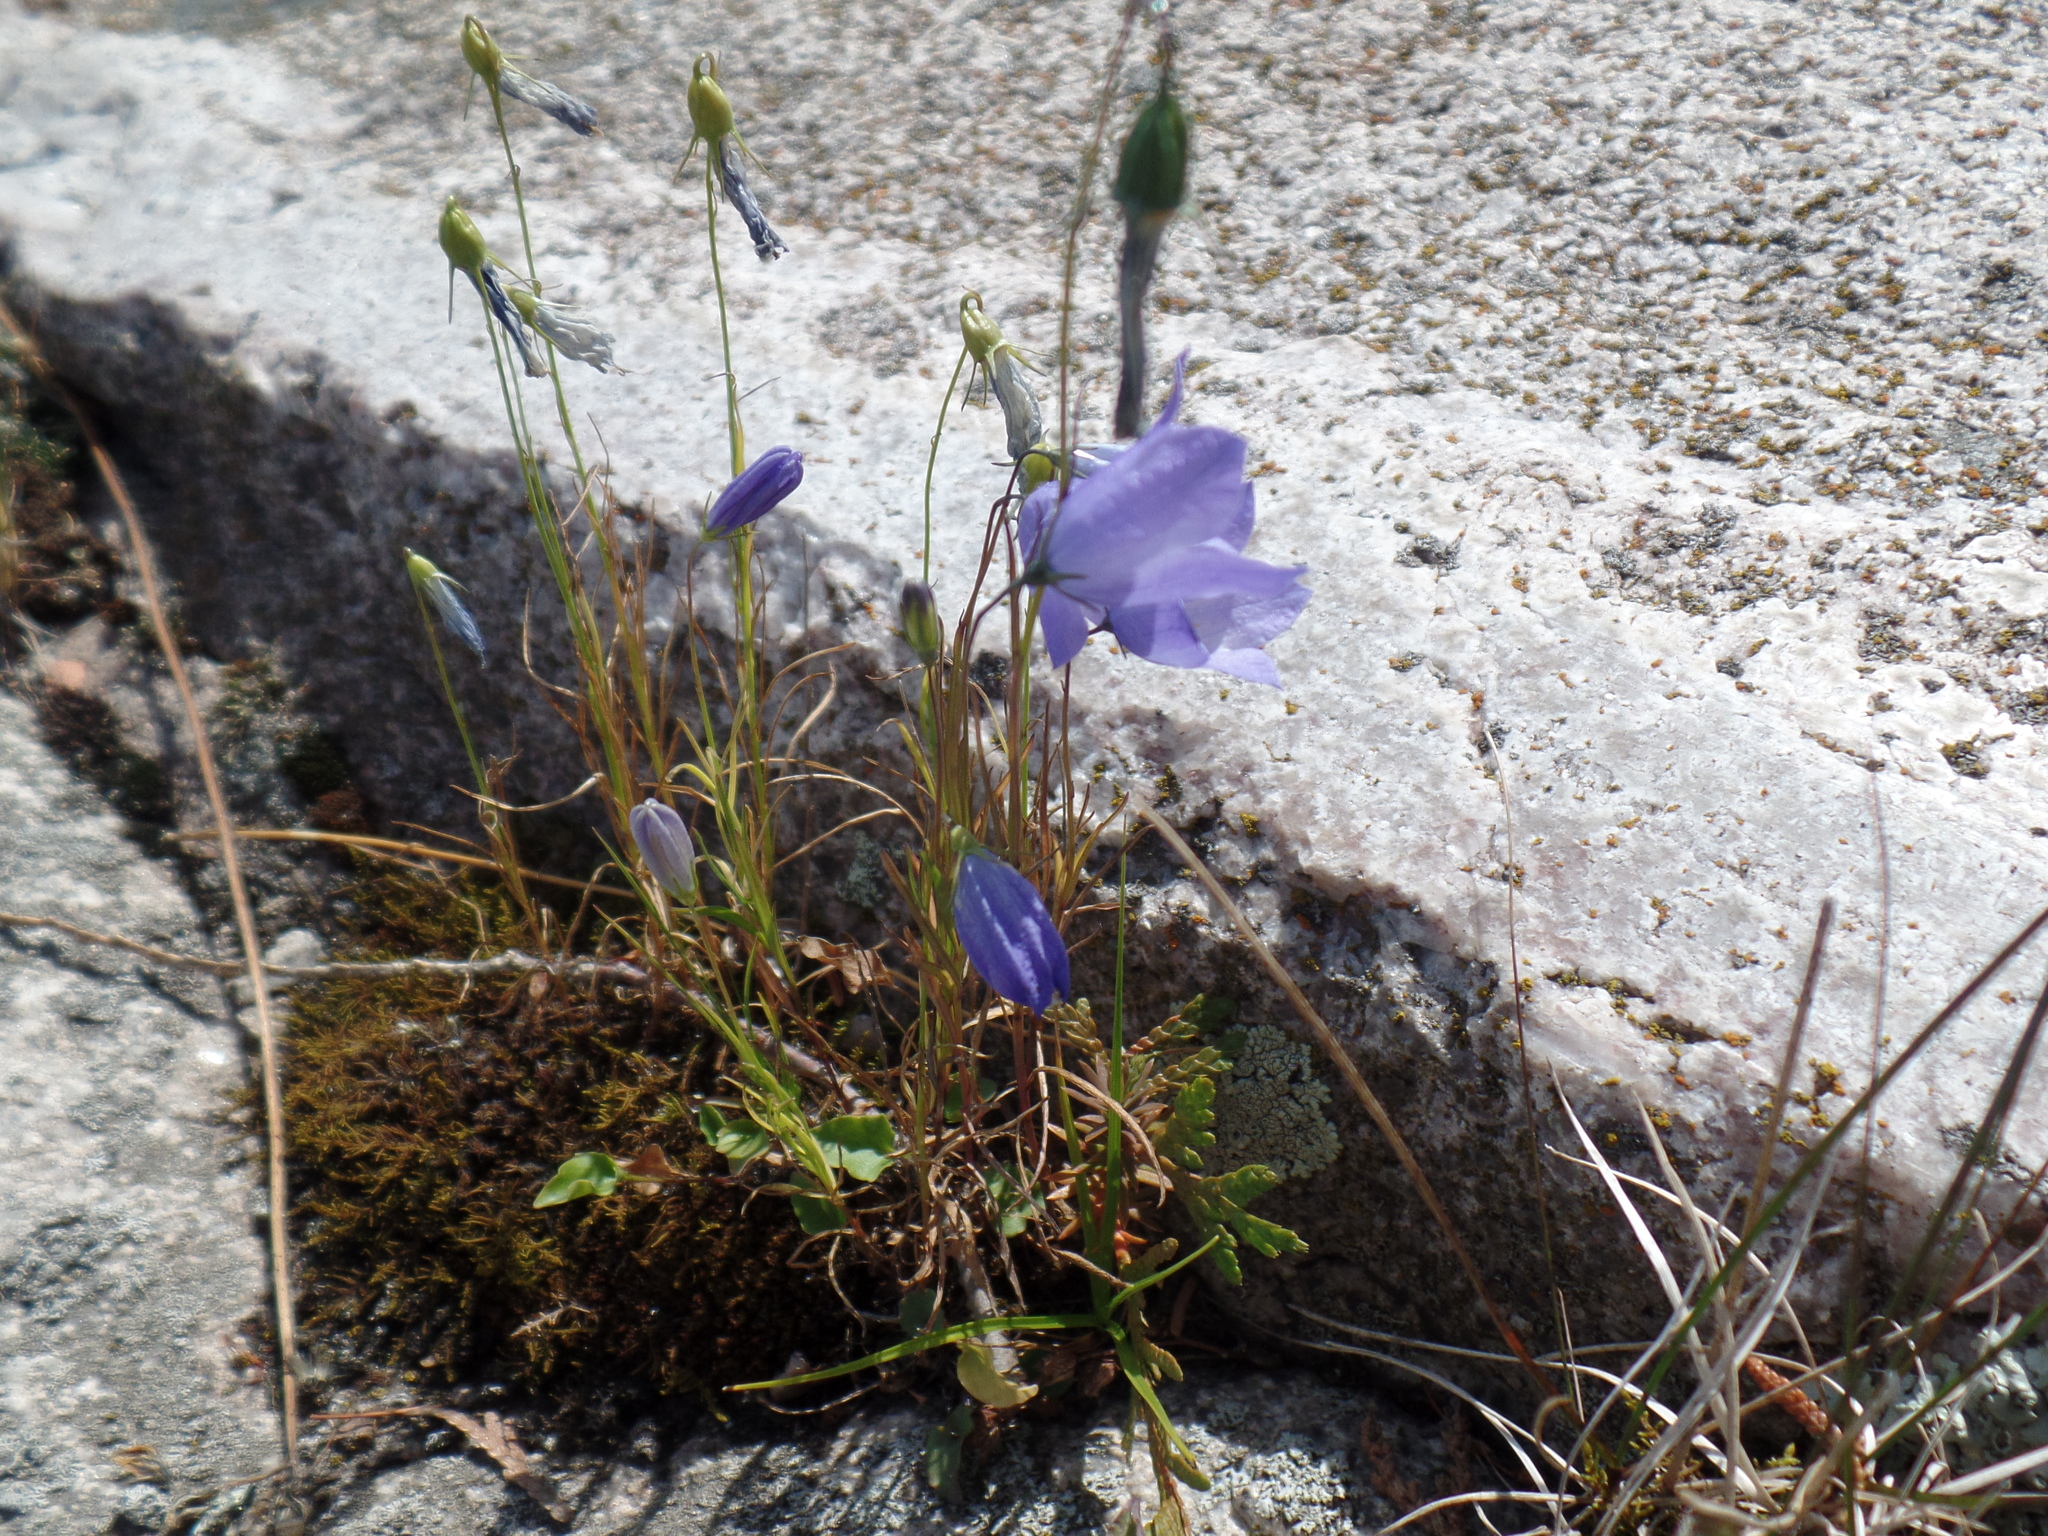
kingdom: Plantae
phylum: Tracheophyta
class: Magnoliopsida
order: Asterales
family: Campanulaceae
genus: Campanula
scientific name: Campanula intercedens
